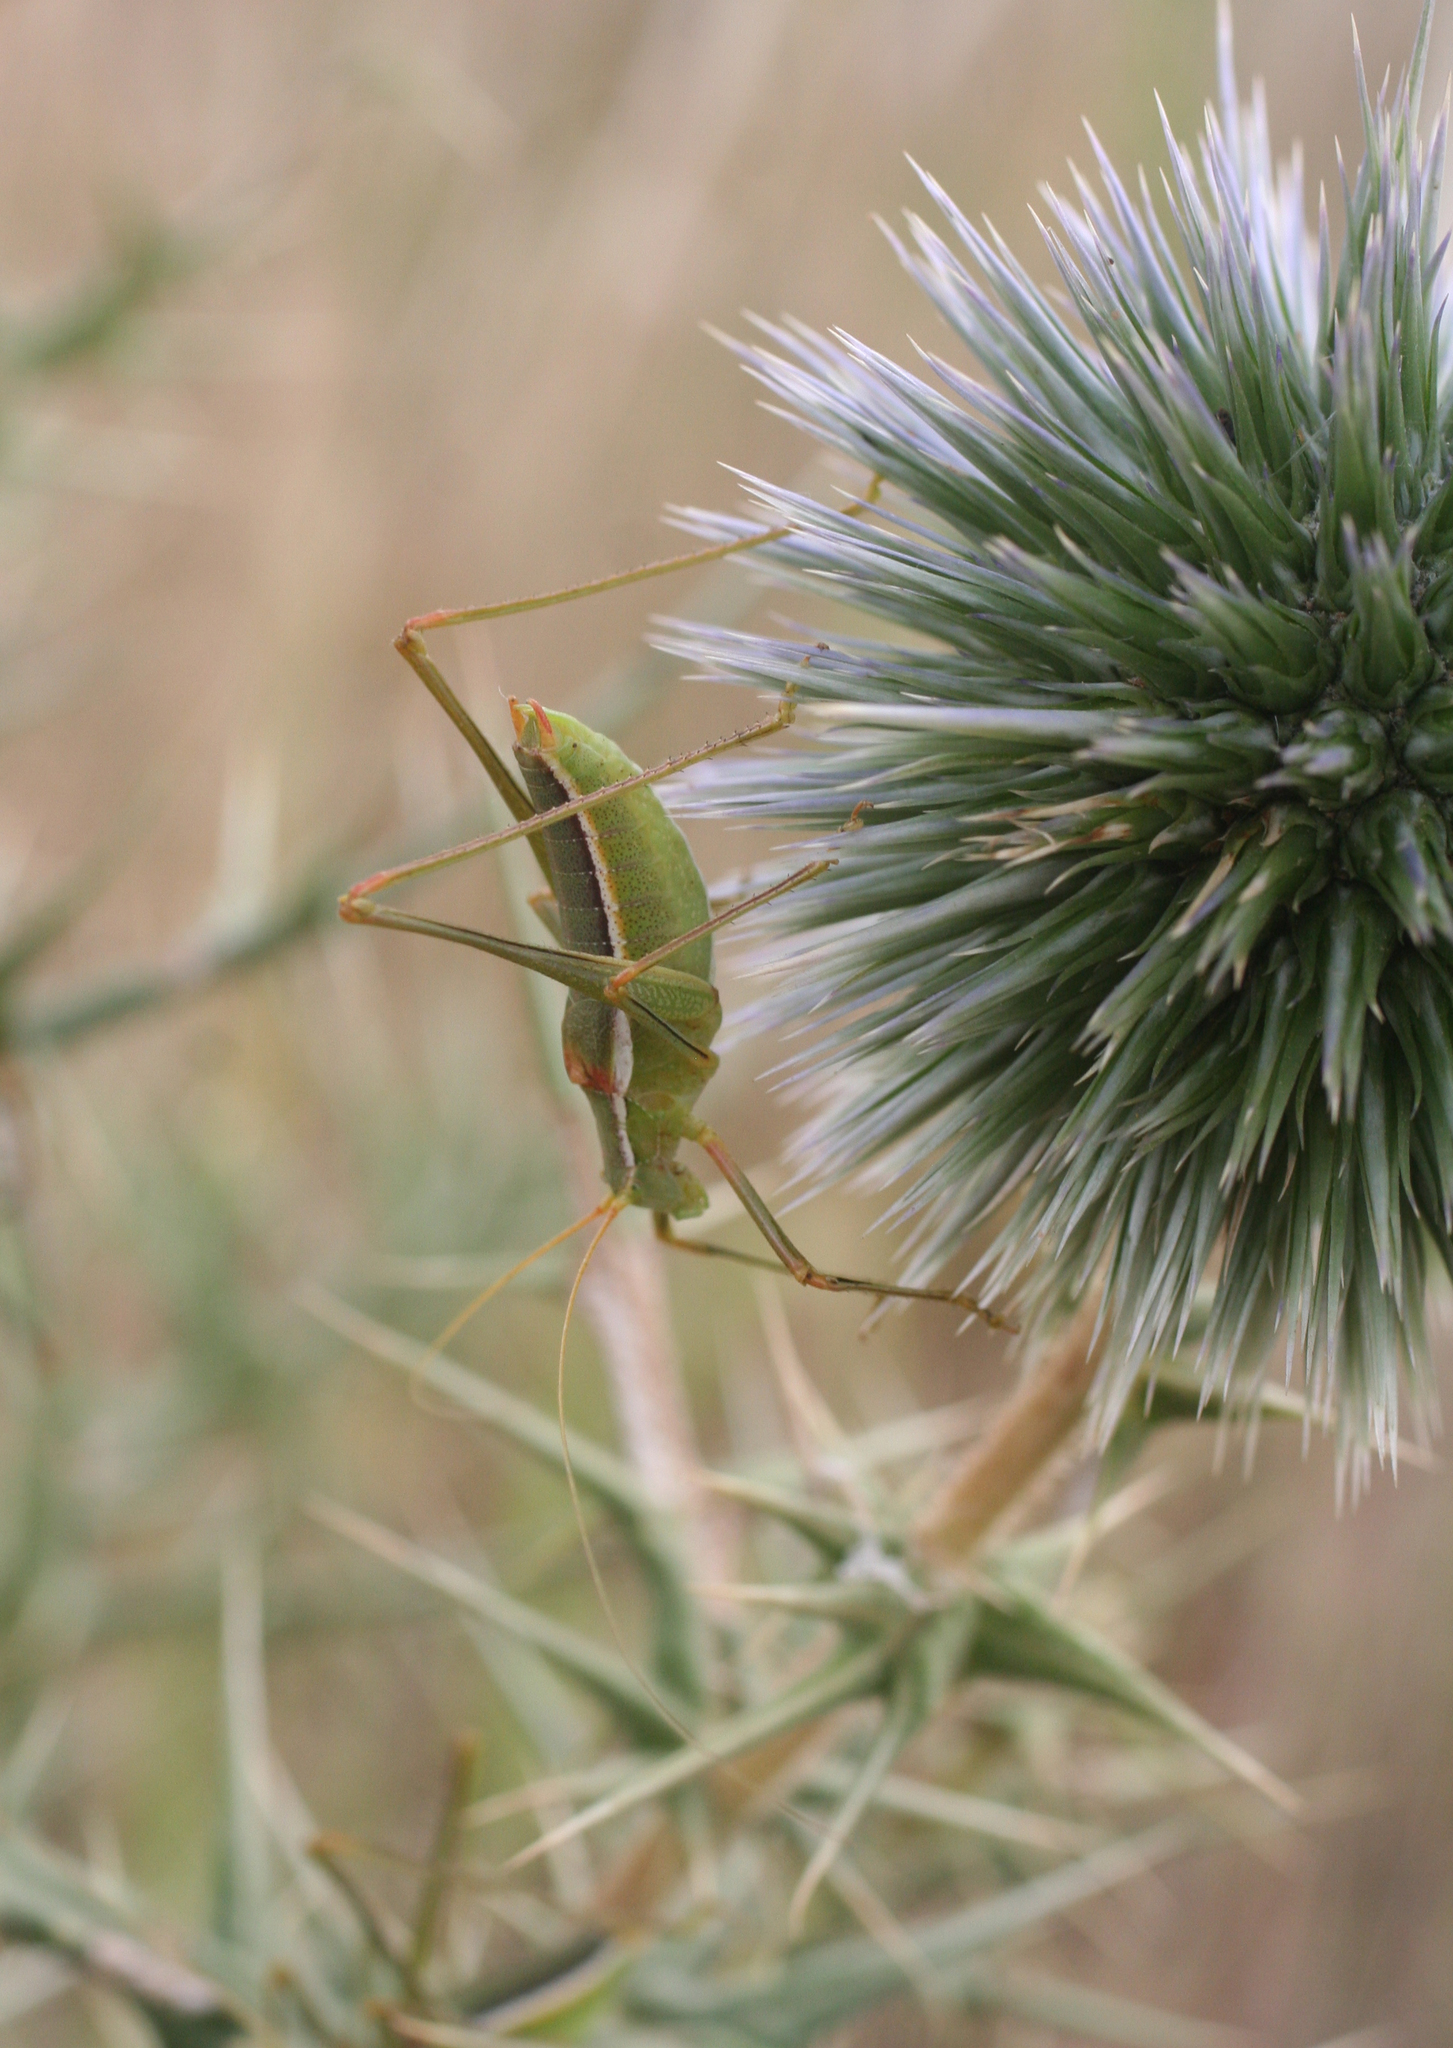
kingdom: Plantae
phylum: Tracheophyta
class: Magnoliopsida
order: Asterales
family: Asteraceae
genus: Echinops
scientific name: Echinops
